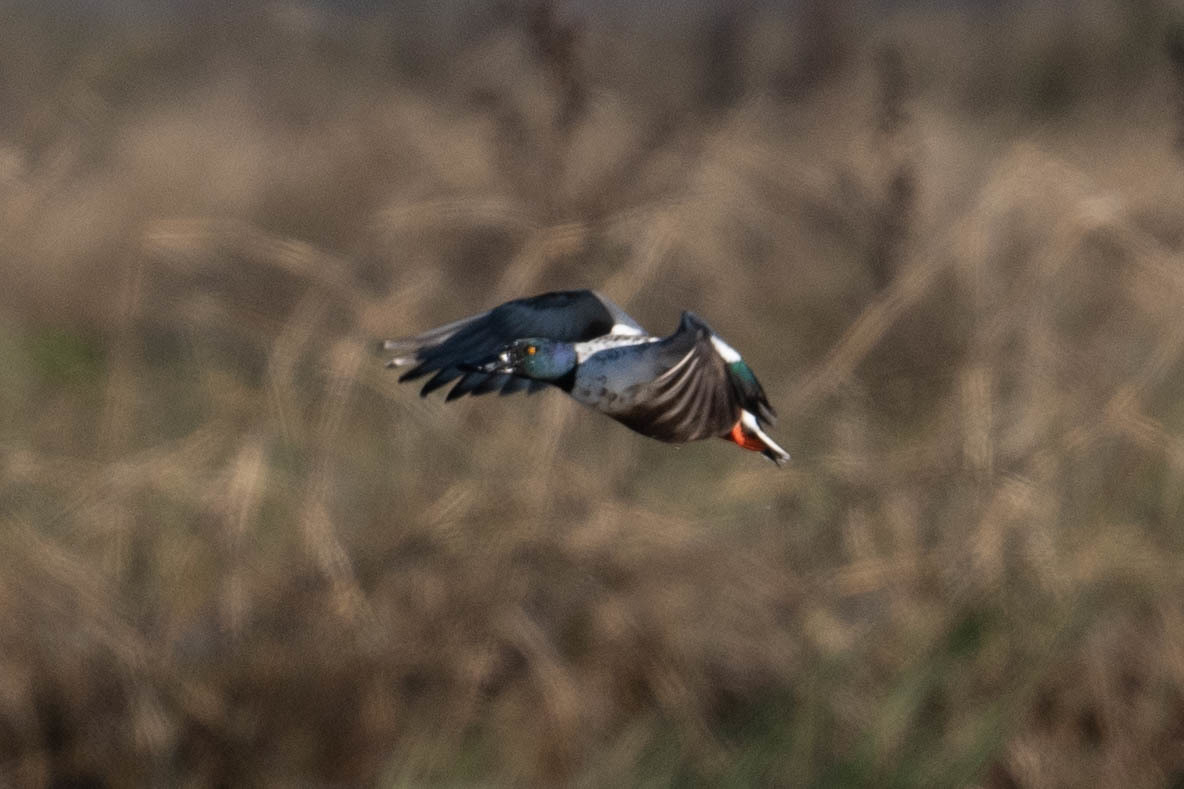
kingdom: Animalia
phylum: Chordata
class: Aves
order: Anseriformes
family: Anatidae
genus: Spatula
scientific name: Spatula clypeata
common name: Northern shoveler
